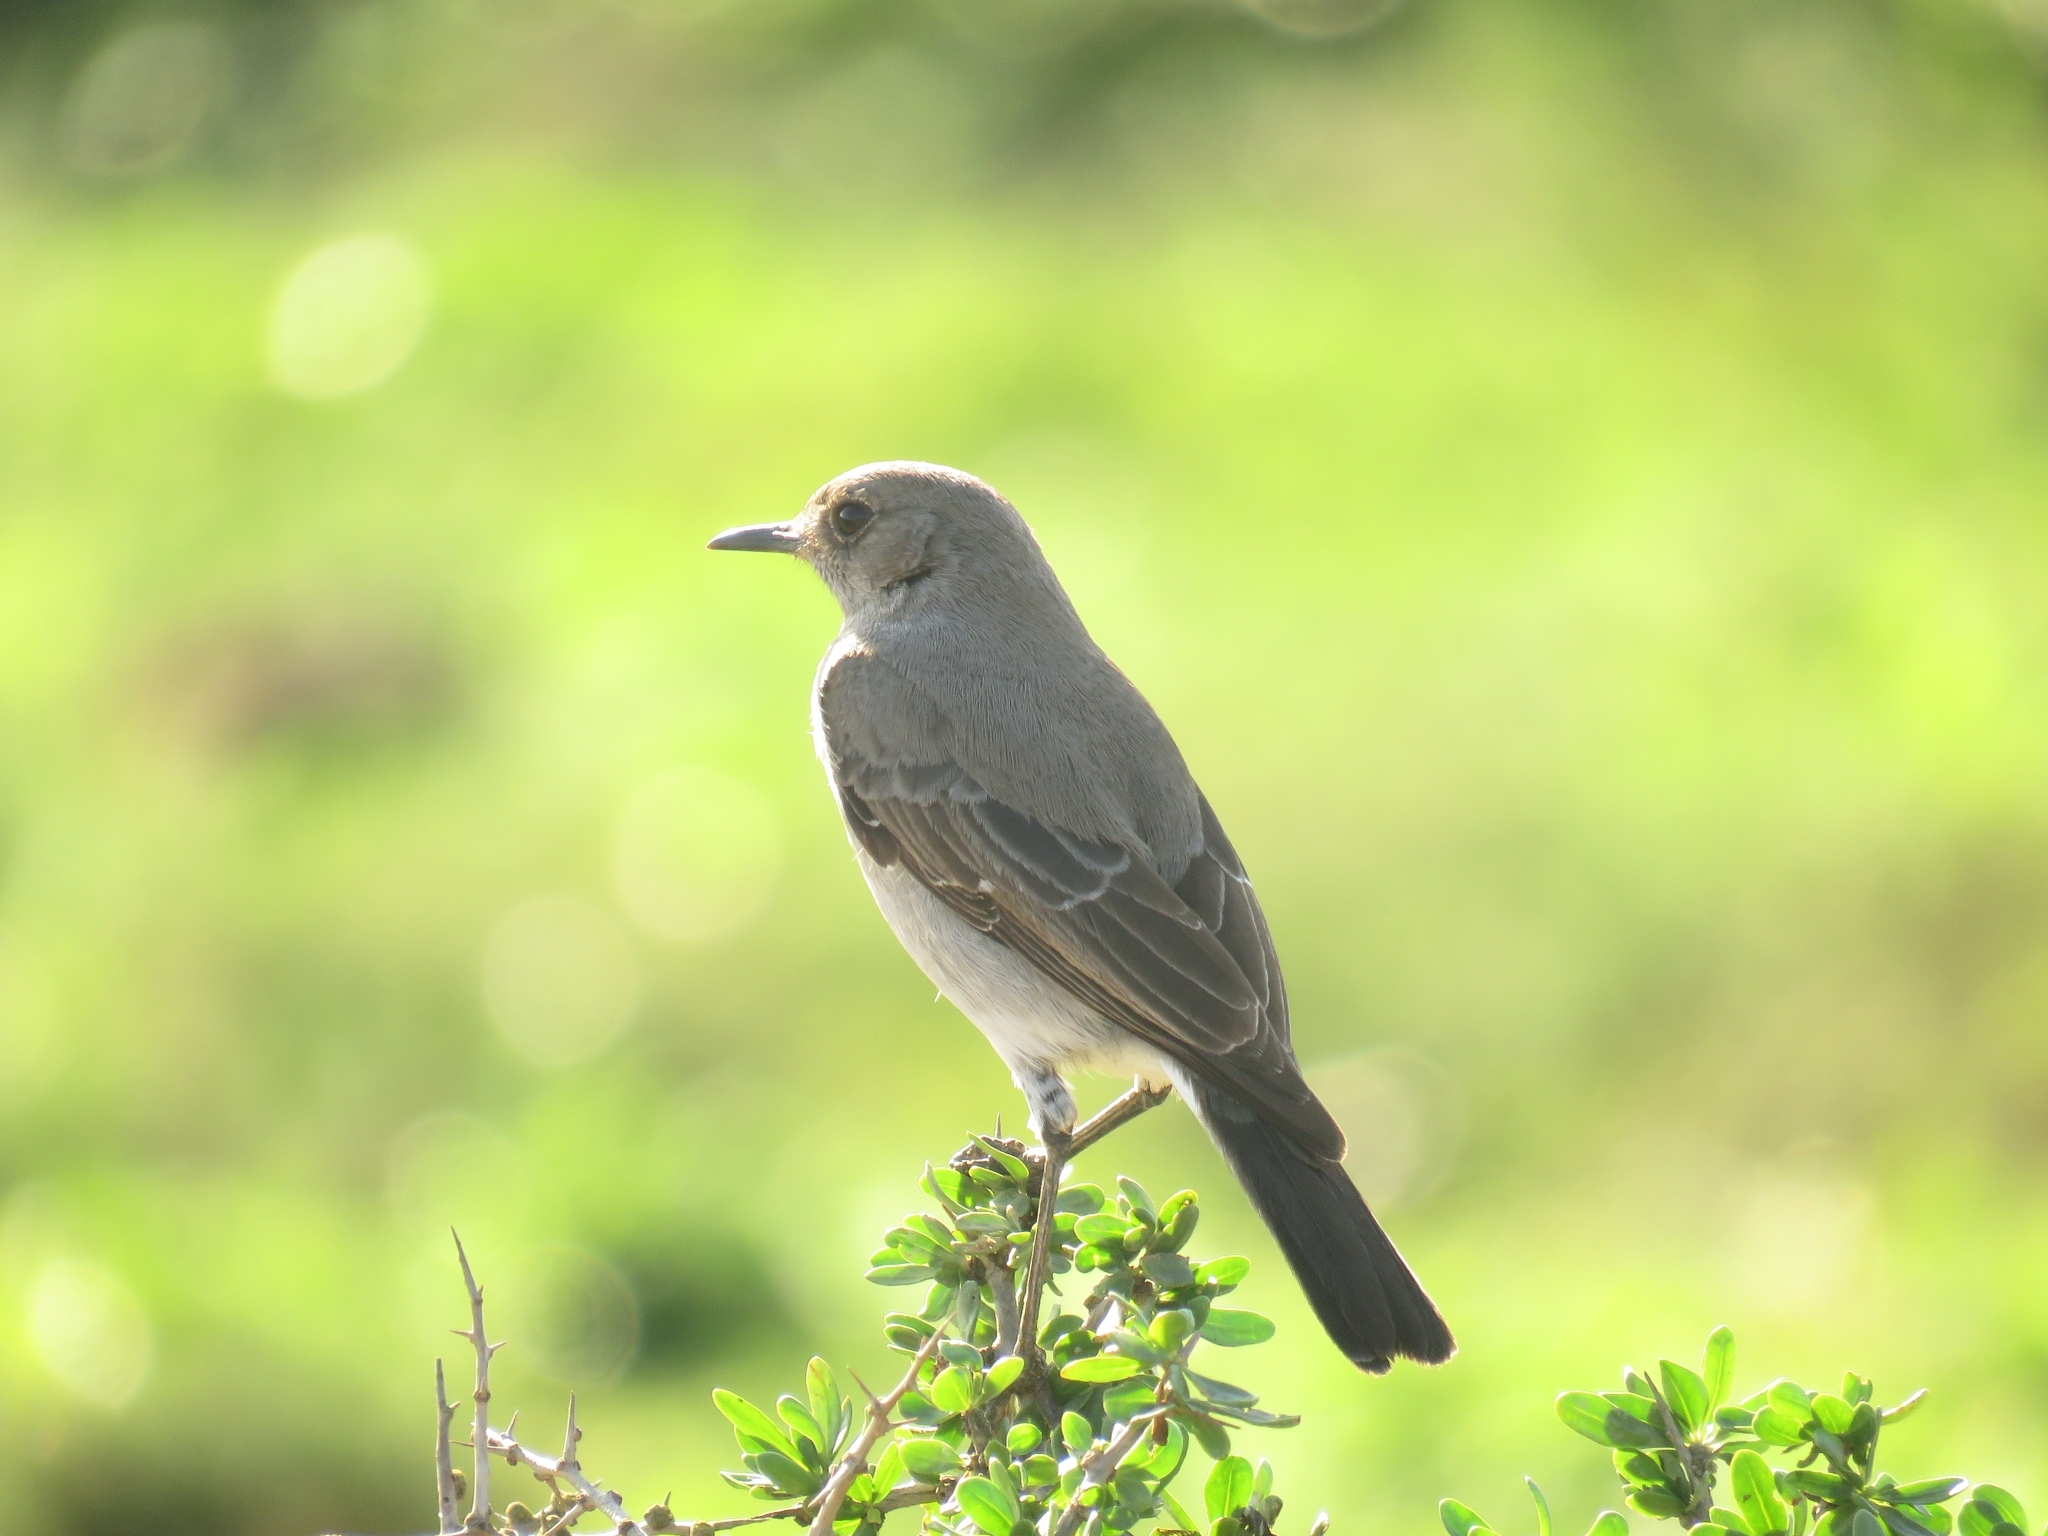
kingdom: Animalia
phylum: Chordata
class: Aves
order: Passeriformes
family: Muscicapidae
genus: Emarginata
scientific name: Emarginata schlegelii
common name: Karoo chat
